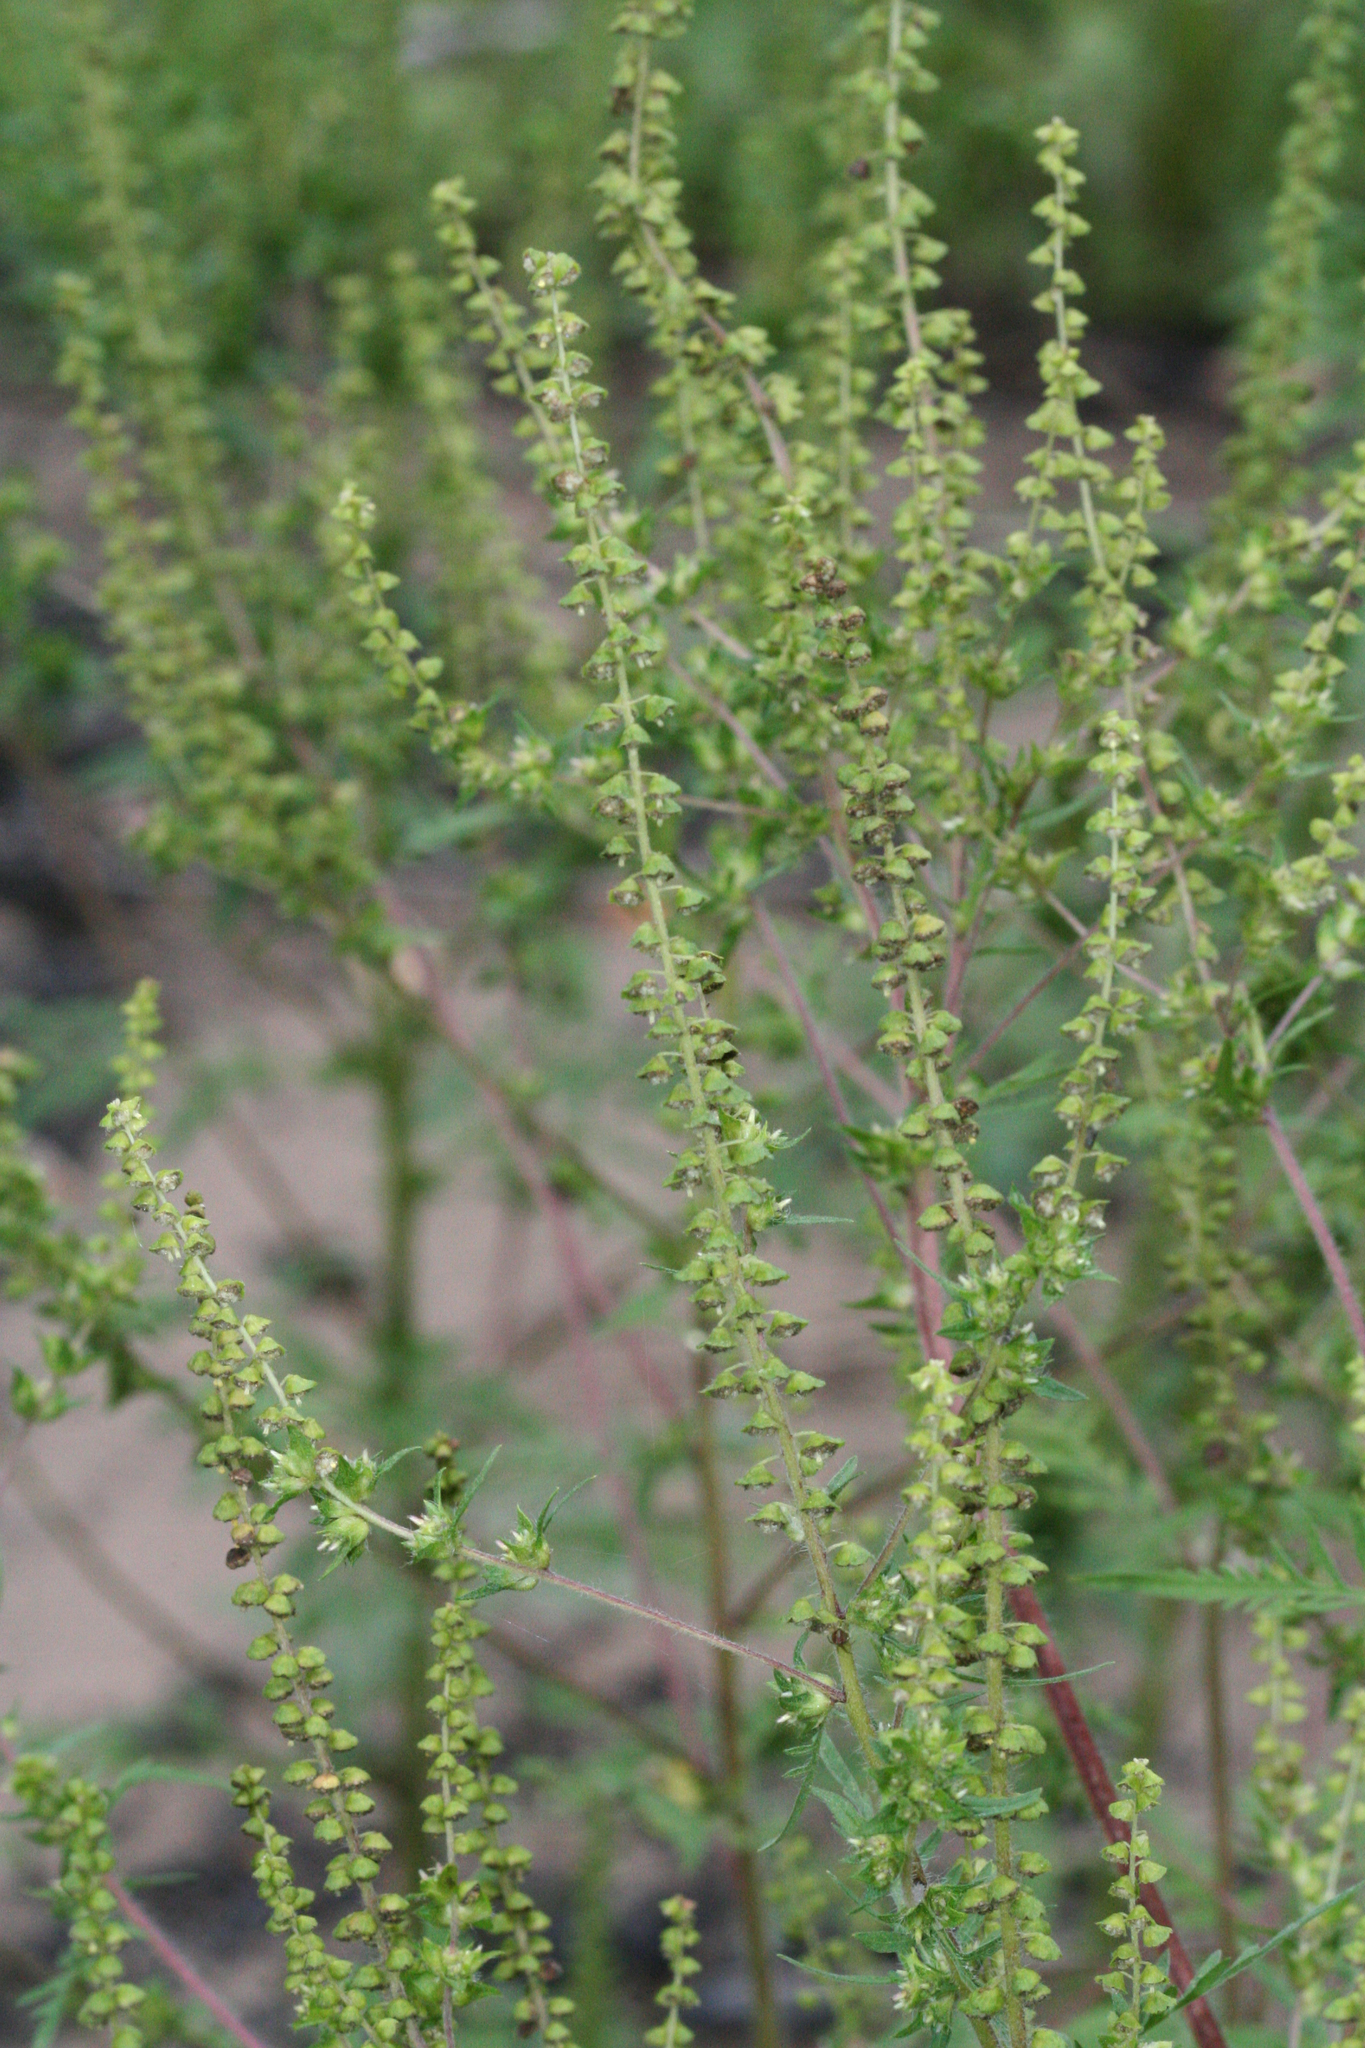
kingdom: Plantae
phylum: Tracheophyta
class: Magnoliopsida
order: Asterales
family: Asteraceae
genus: Ambrosia
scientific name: Ambrosia artemisiifolia
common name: Annual ragweed
